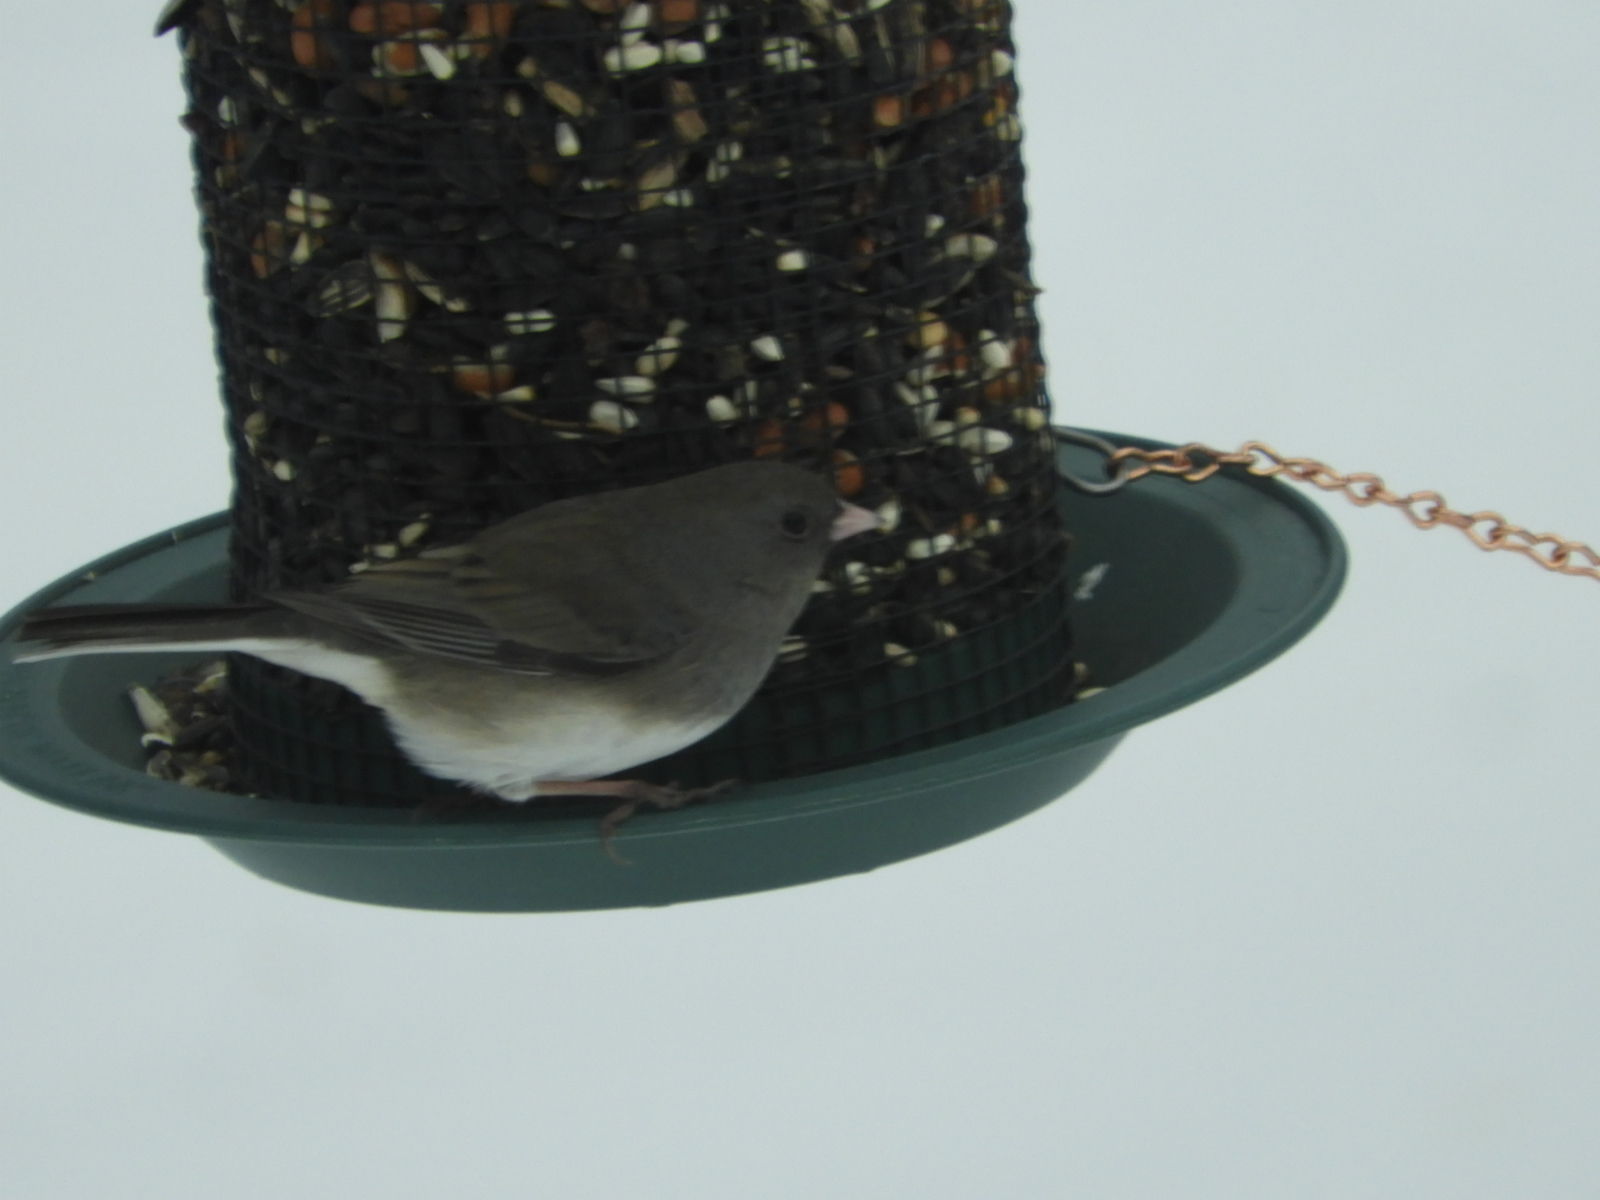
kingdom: Animalia
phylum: Chordata
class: Aves
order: Passeriformes
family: Passerellidae
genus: Junco
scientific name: Junco hyemalis
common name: Dark-eyed junco
